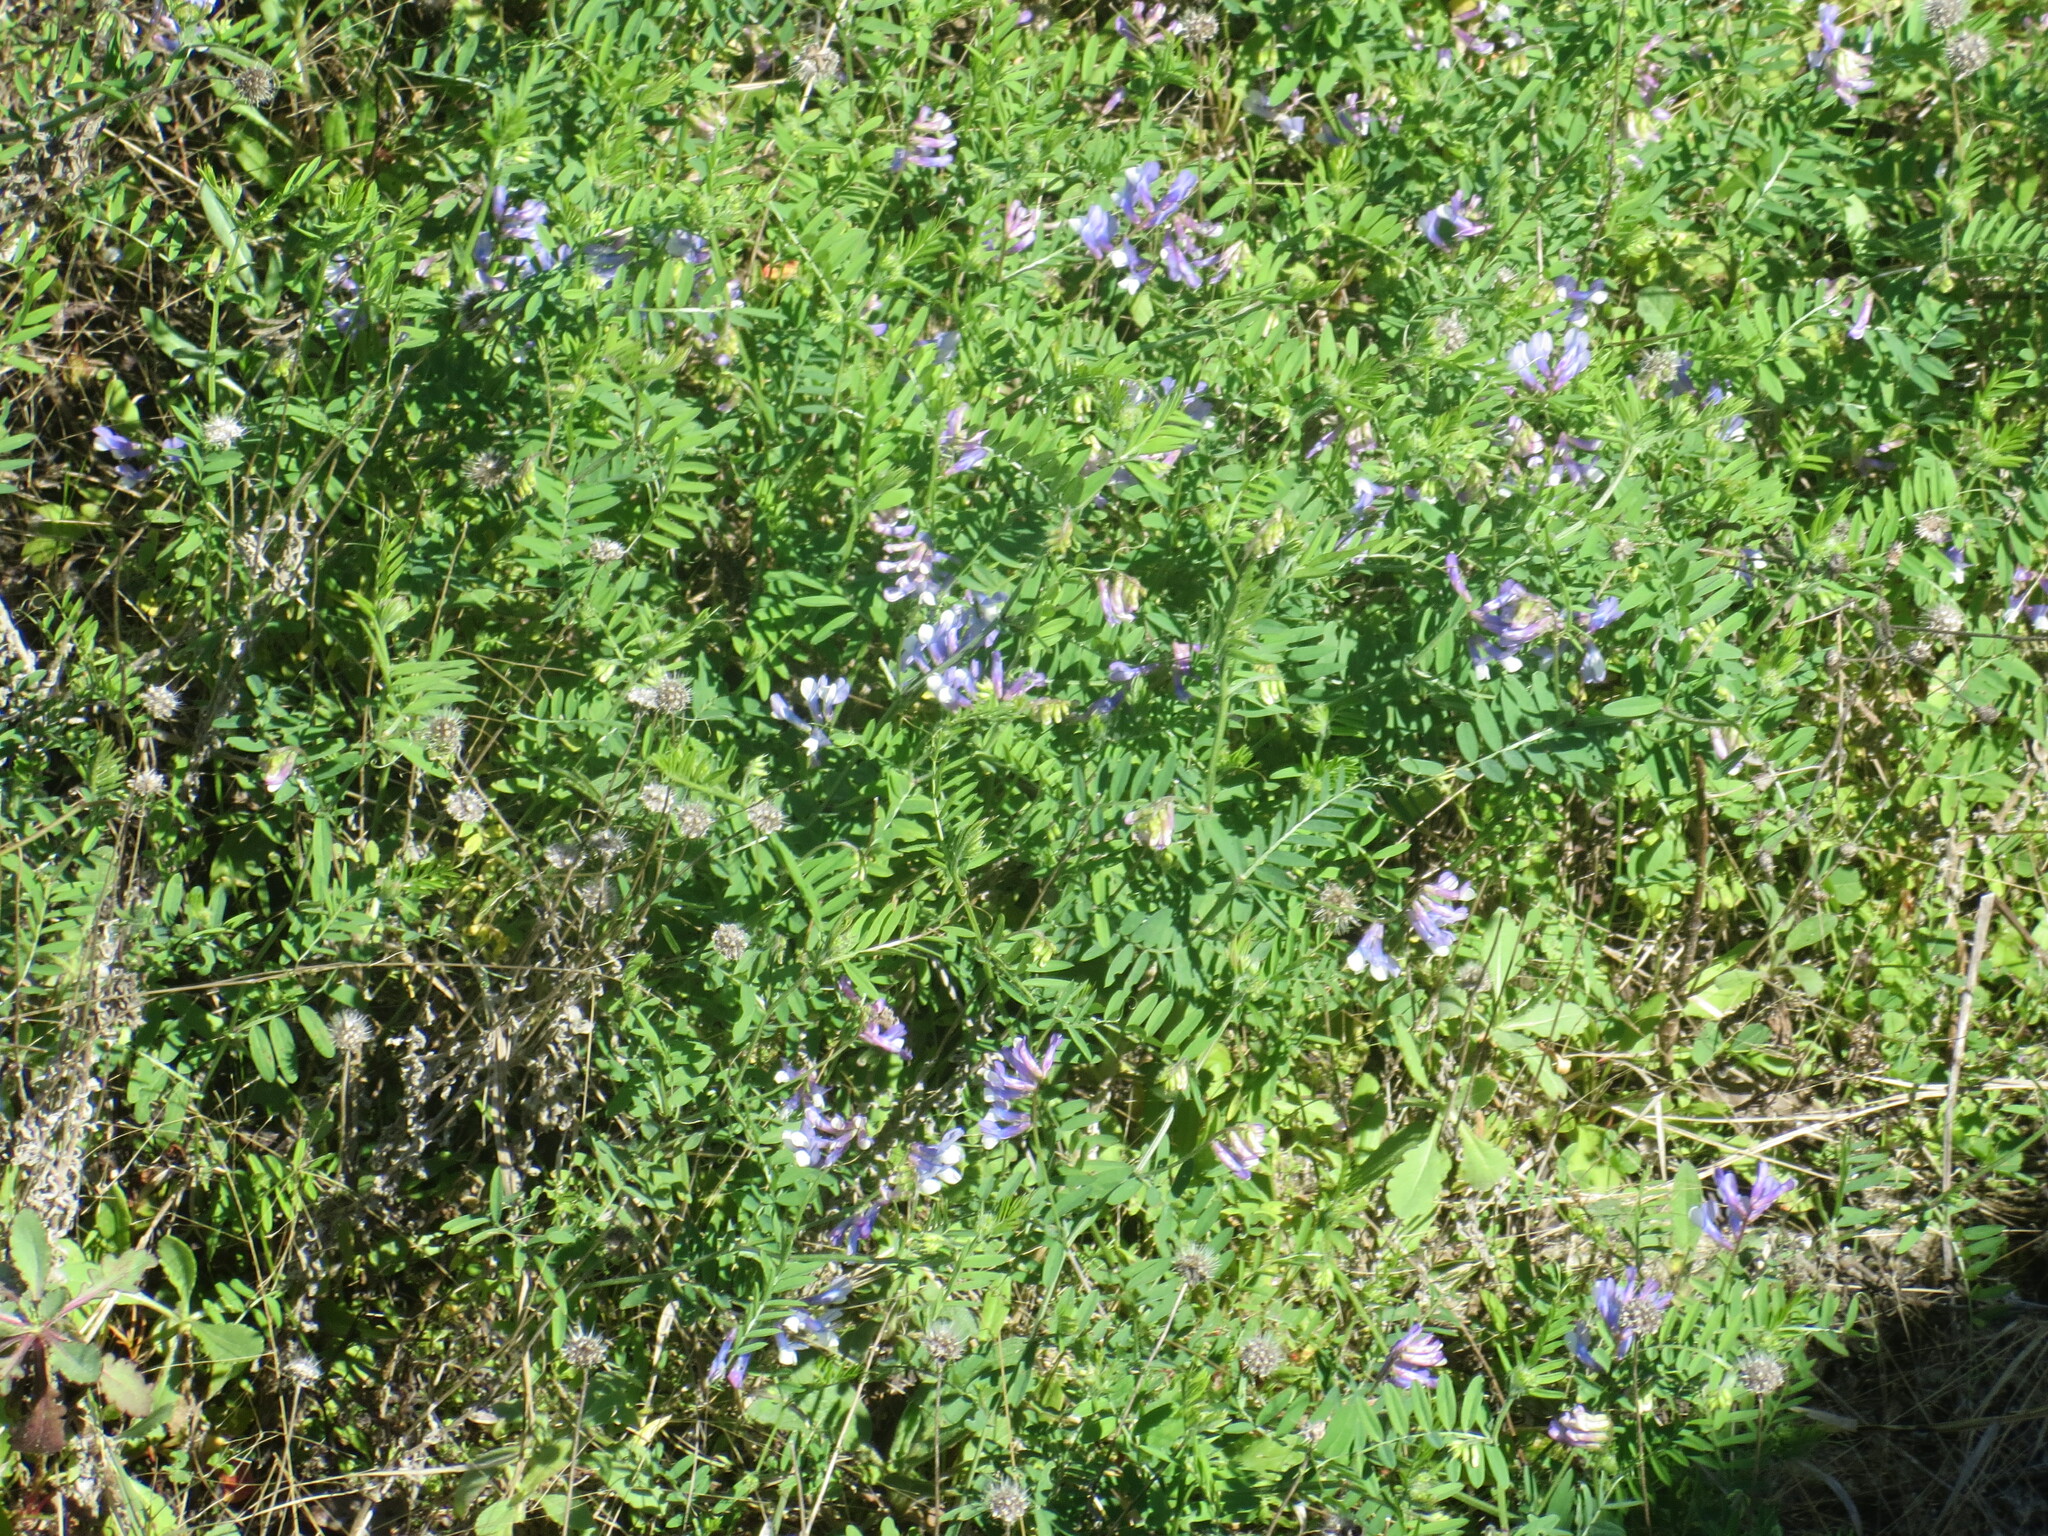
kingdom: Plantae
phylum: Tracheophyta
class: Magnoliopsida
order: Fabales
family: Fabaceae
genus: Vicia
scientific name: Vicia villosa
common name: Fodder vetch
